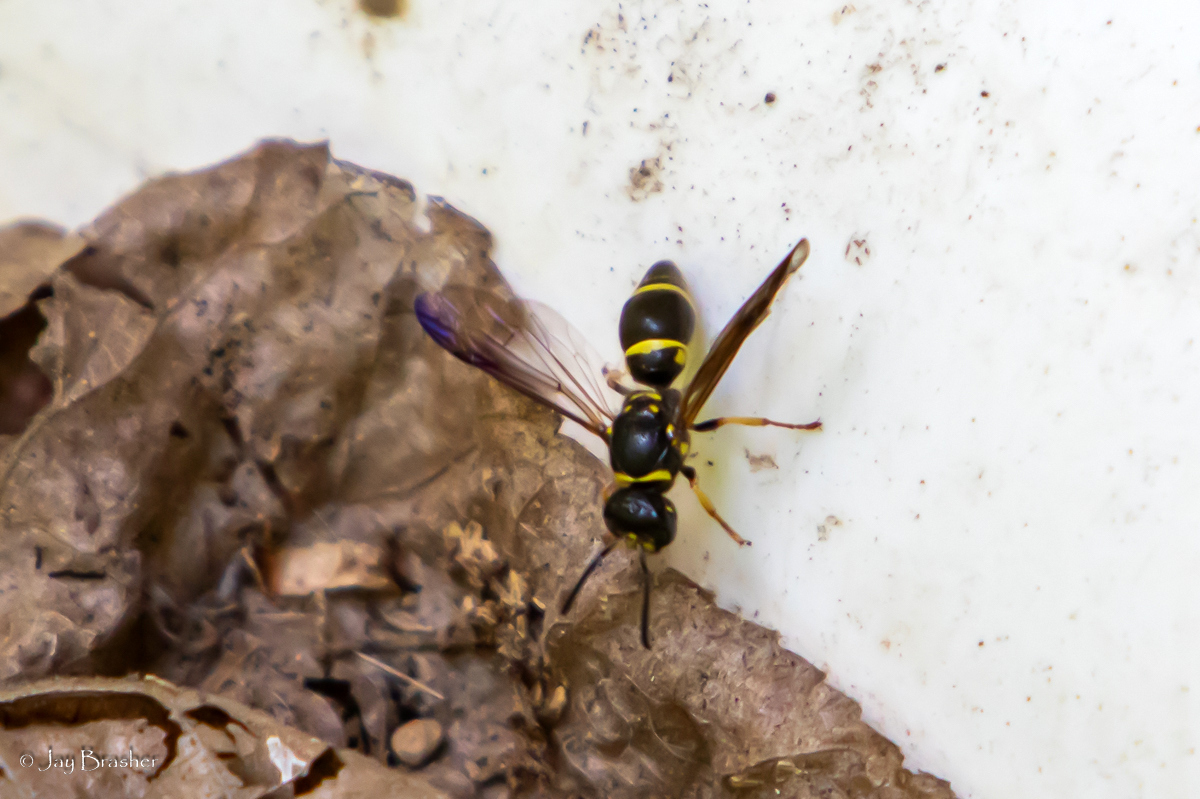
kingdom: Animalia
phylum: Arthropoda
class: Insecta
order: Hymenoptera
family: Vespidae
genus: Ancistrocerus
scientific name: Ancistrocerus campestris
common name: Smiling mason wasp
